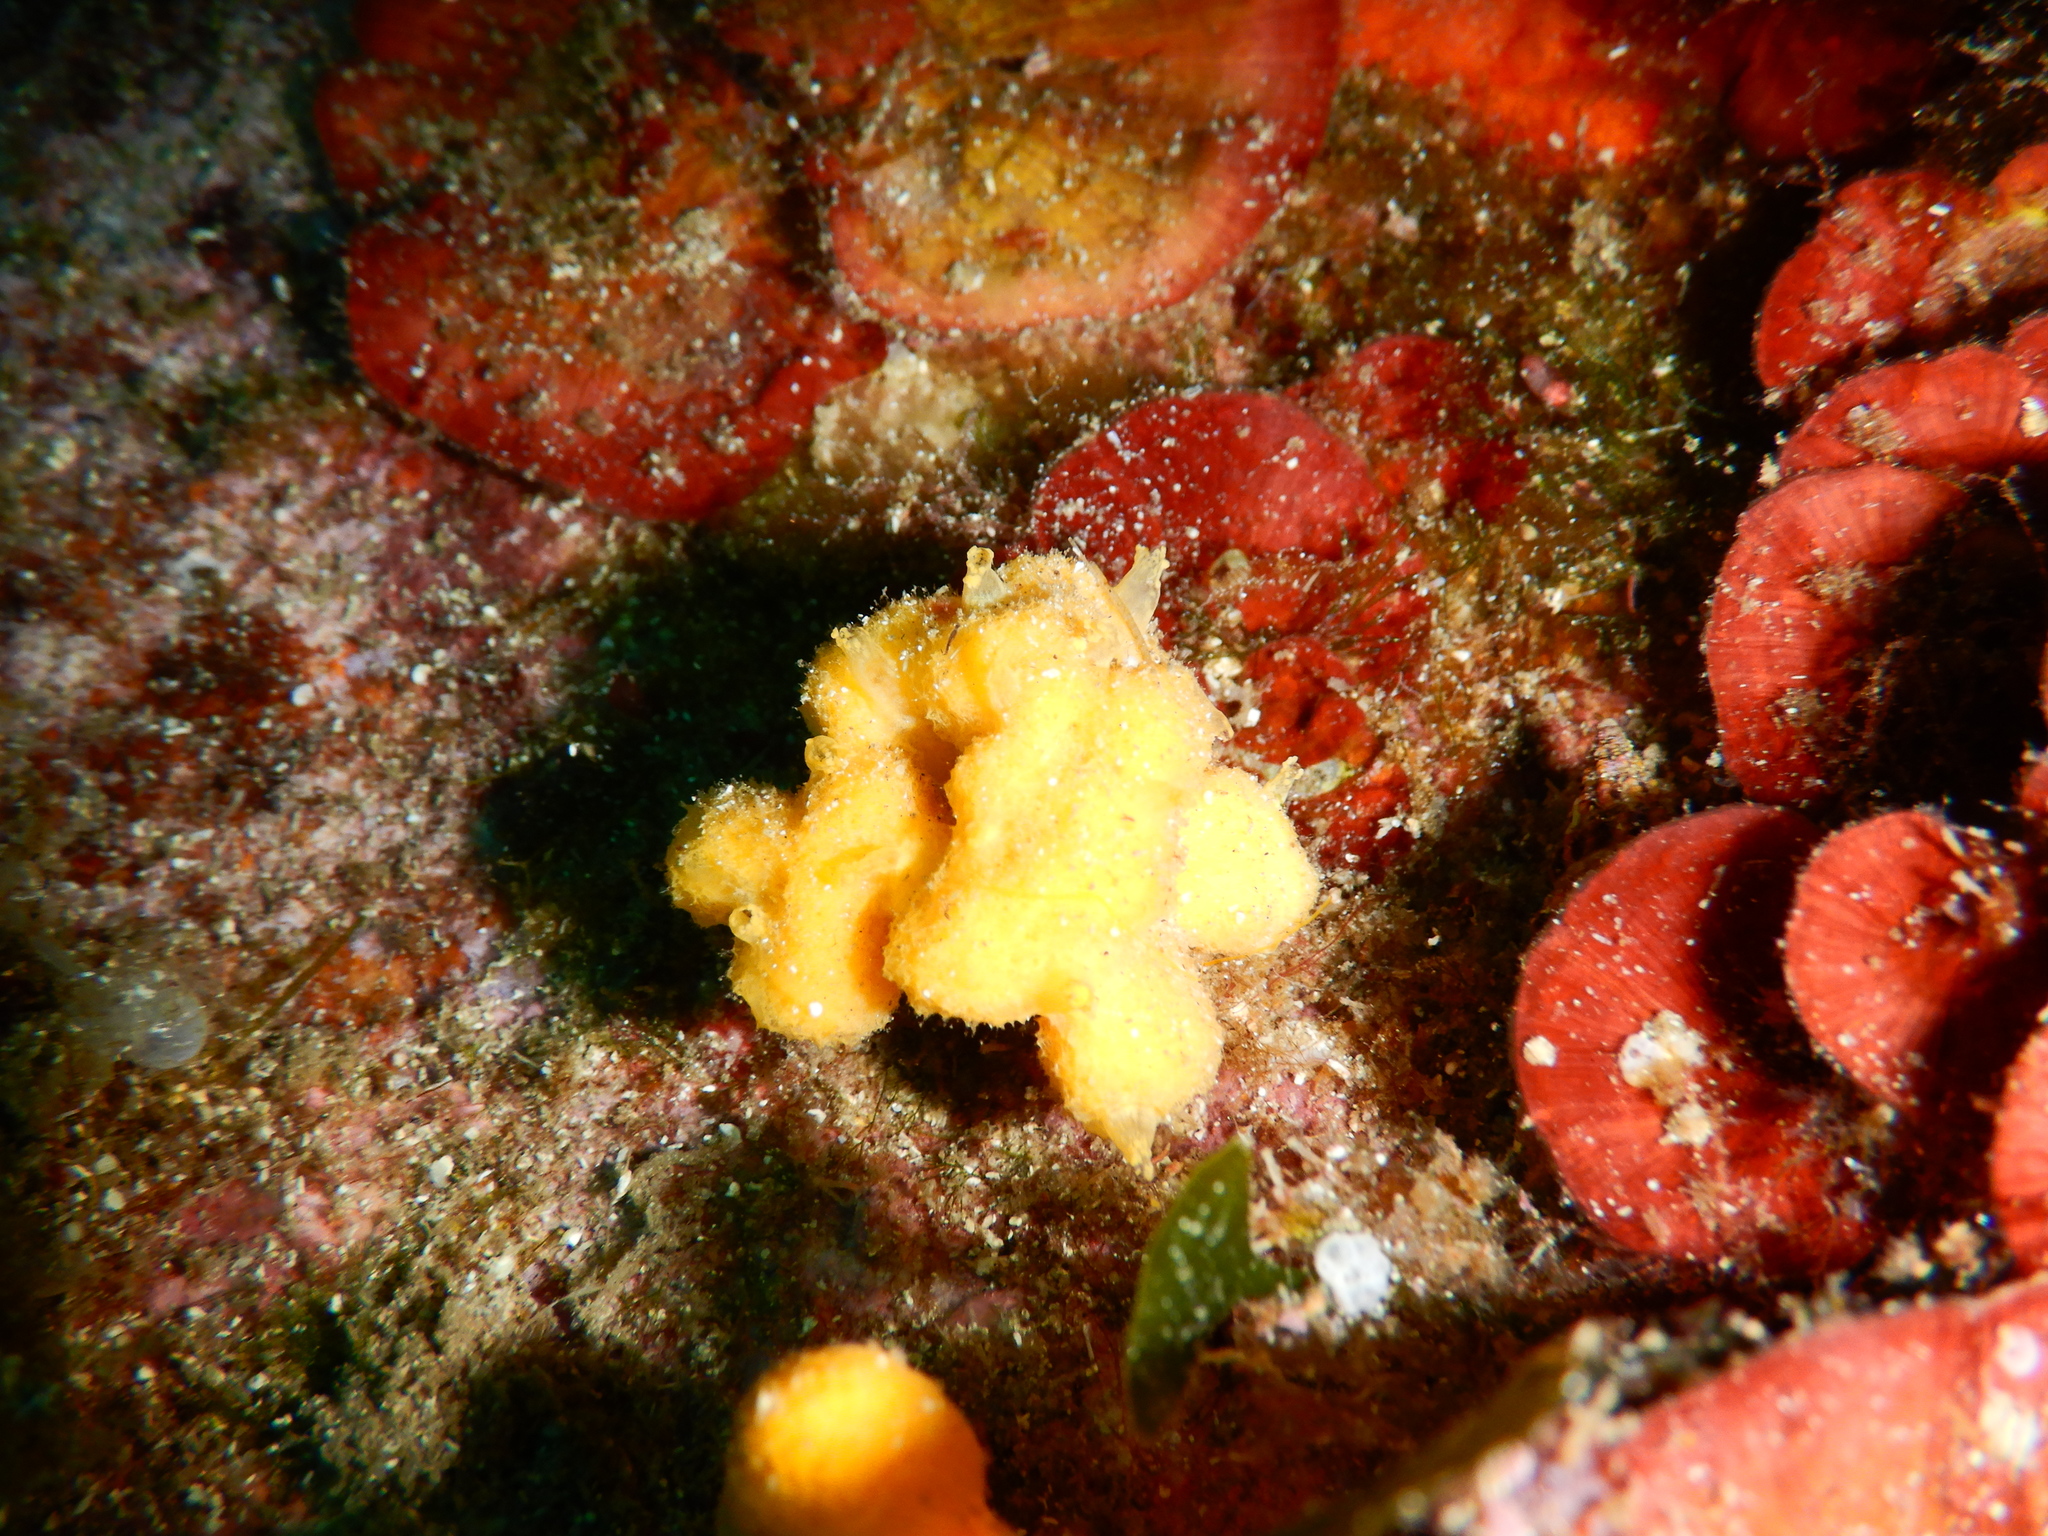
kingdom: Animalia
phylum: Porifera
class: Demospongiae
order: Axinellida
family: Axinellidae
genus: Axinella
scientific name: Axinella damicornis
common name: Crumpled duster sponge
